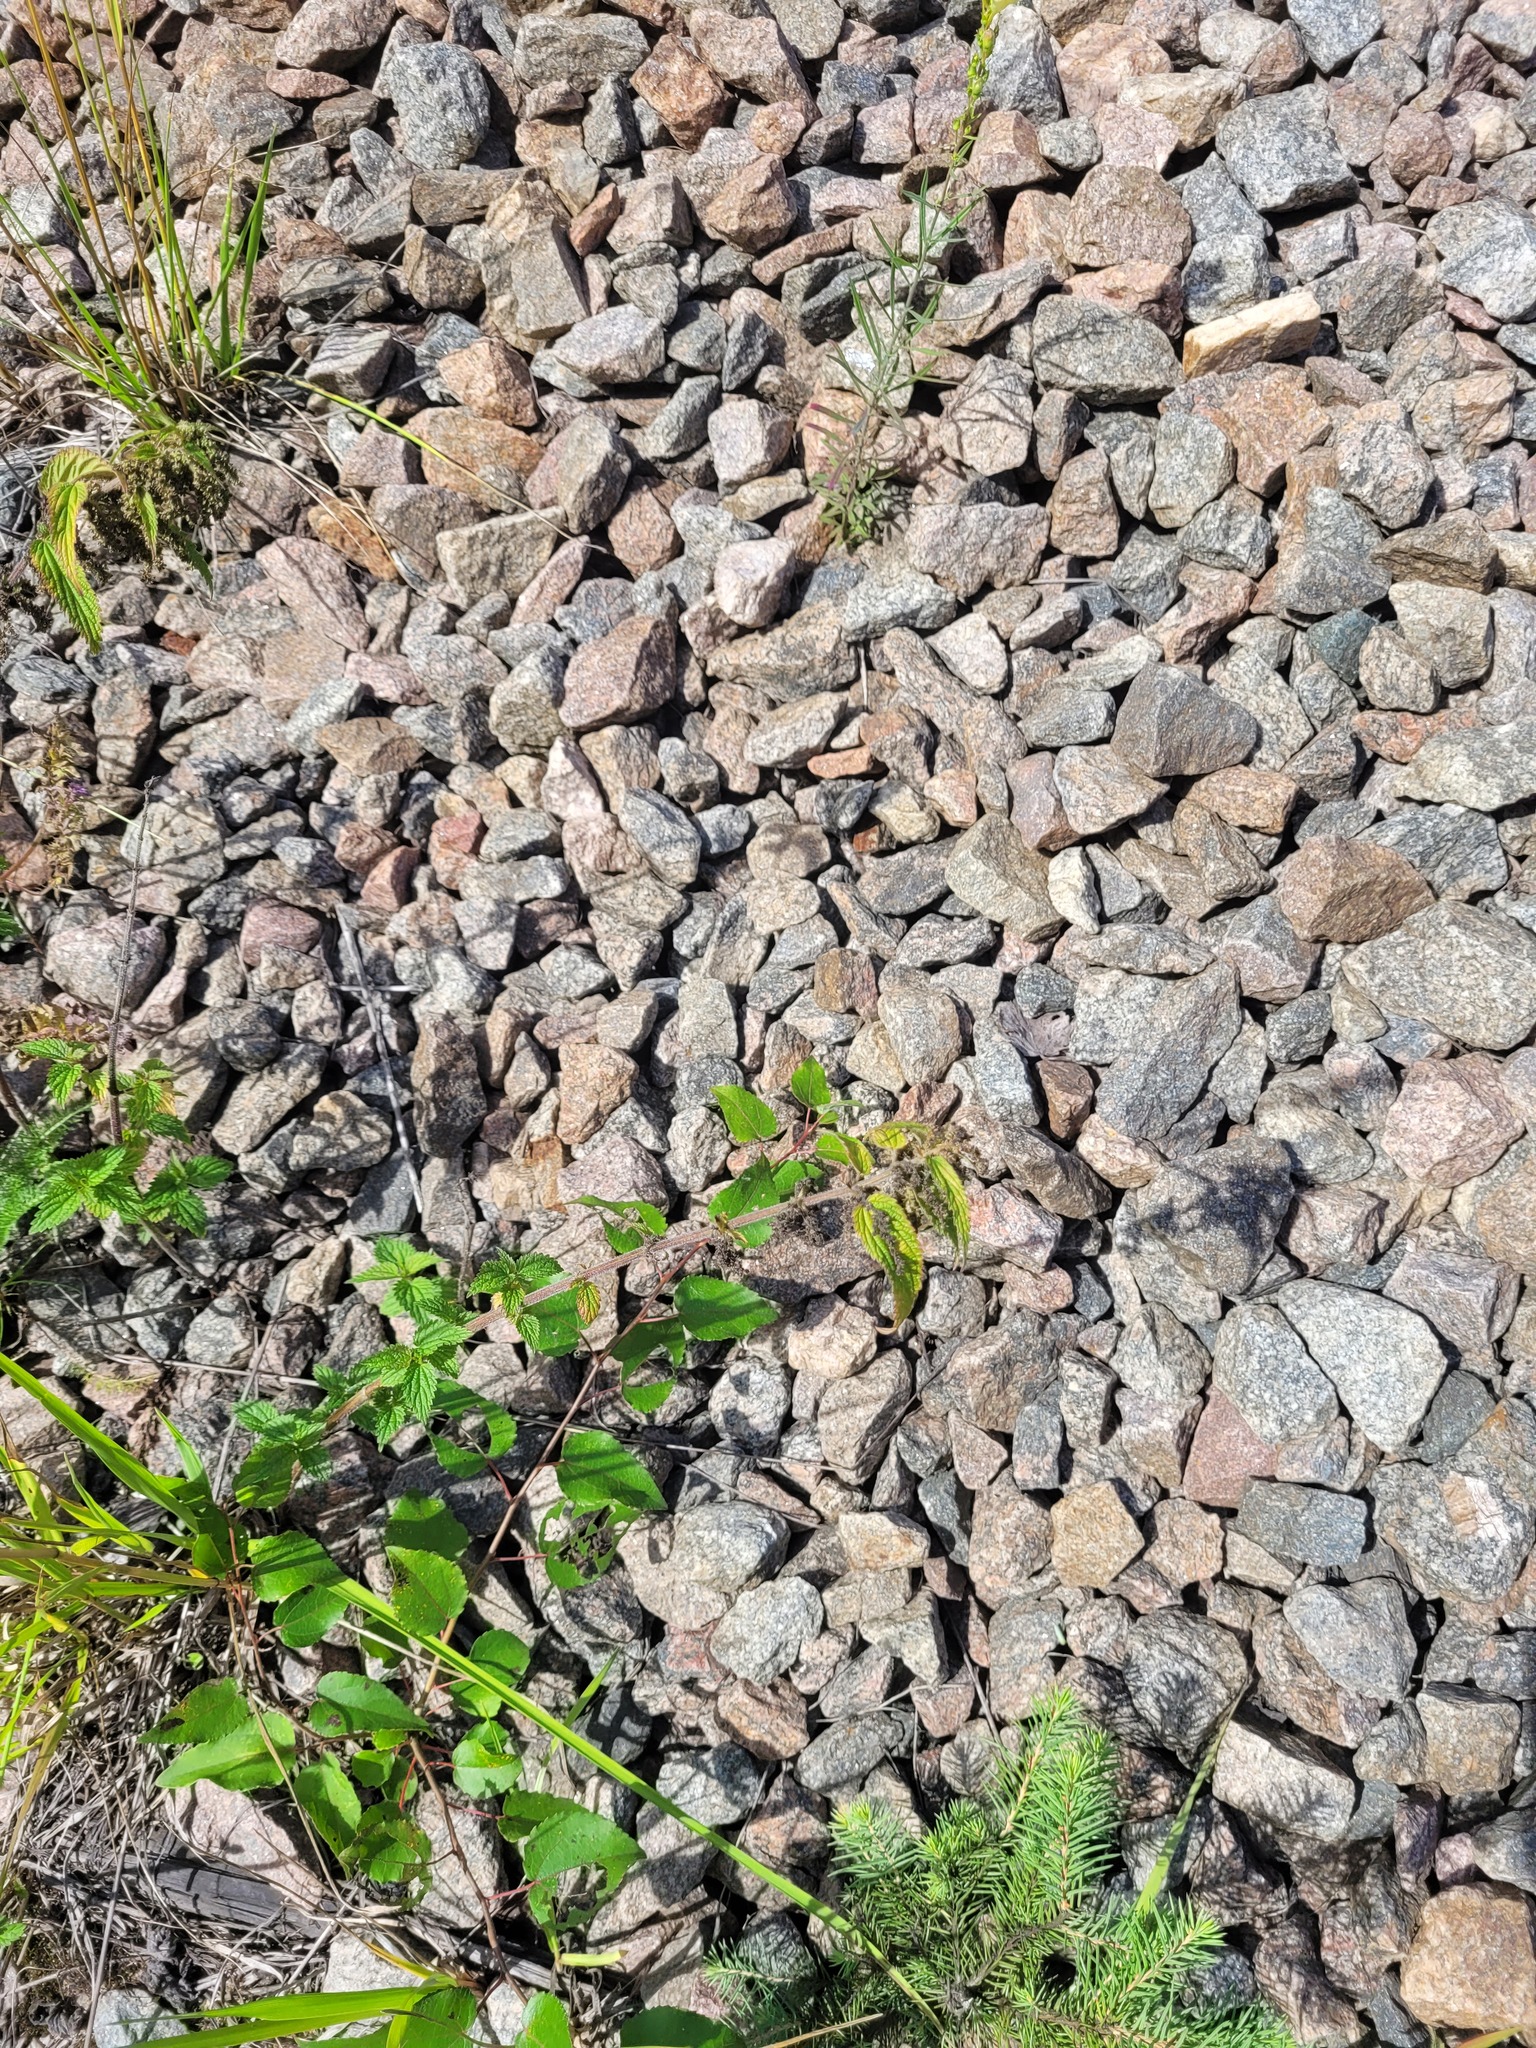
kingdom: Plantae
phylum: Tracheophyta
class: Magnoliopsida
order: Rosales
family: Urticaceae
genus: Urtica
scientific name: Urtica dioica
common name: Common nettle
